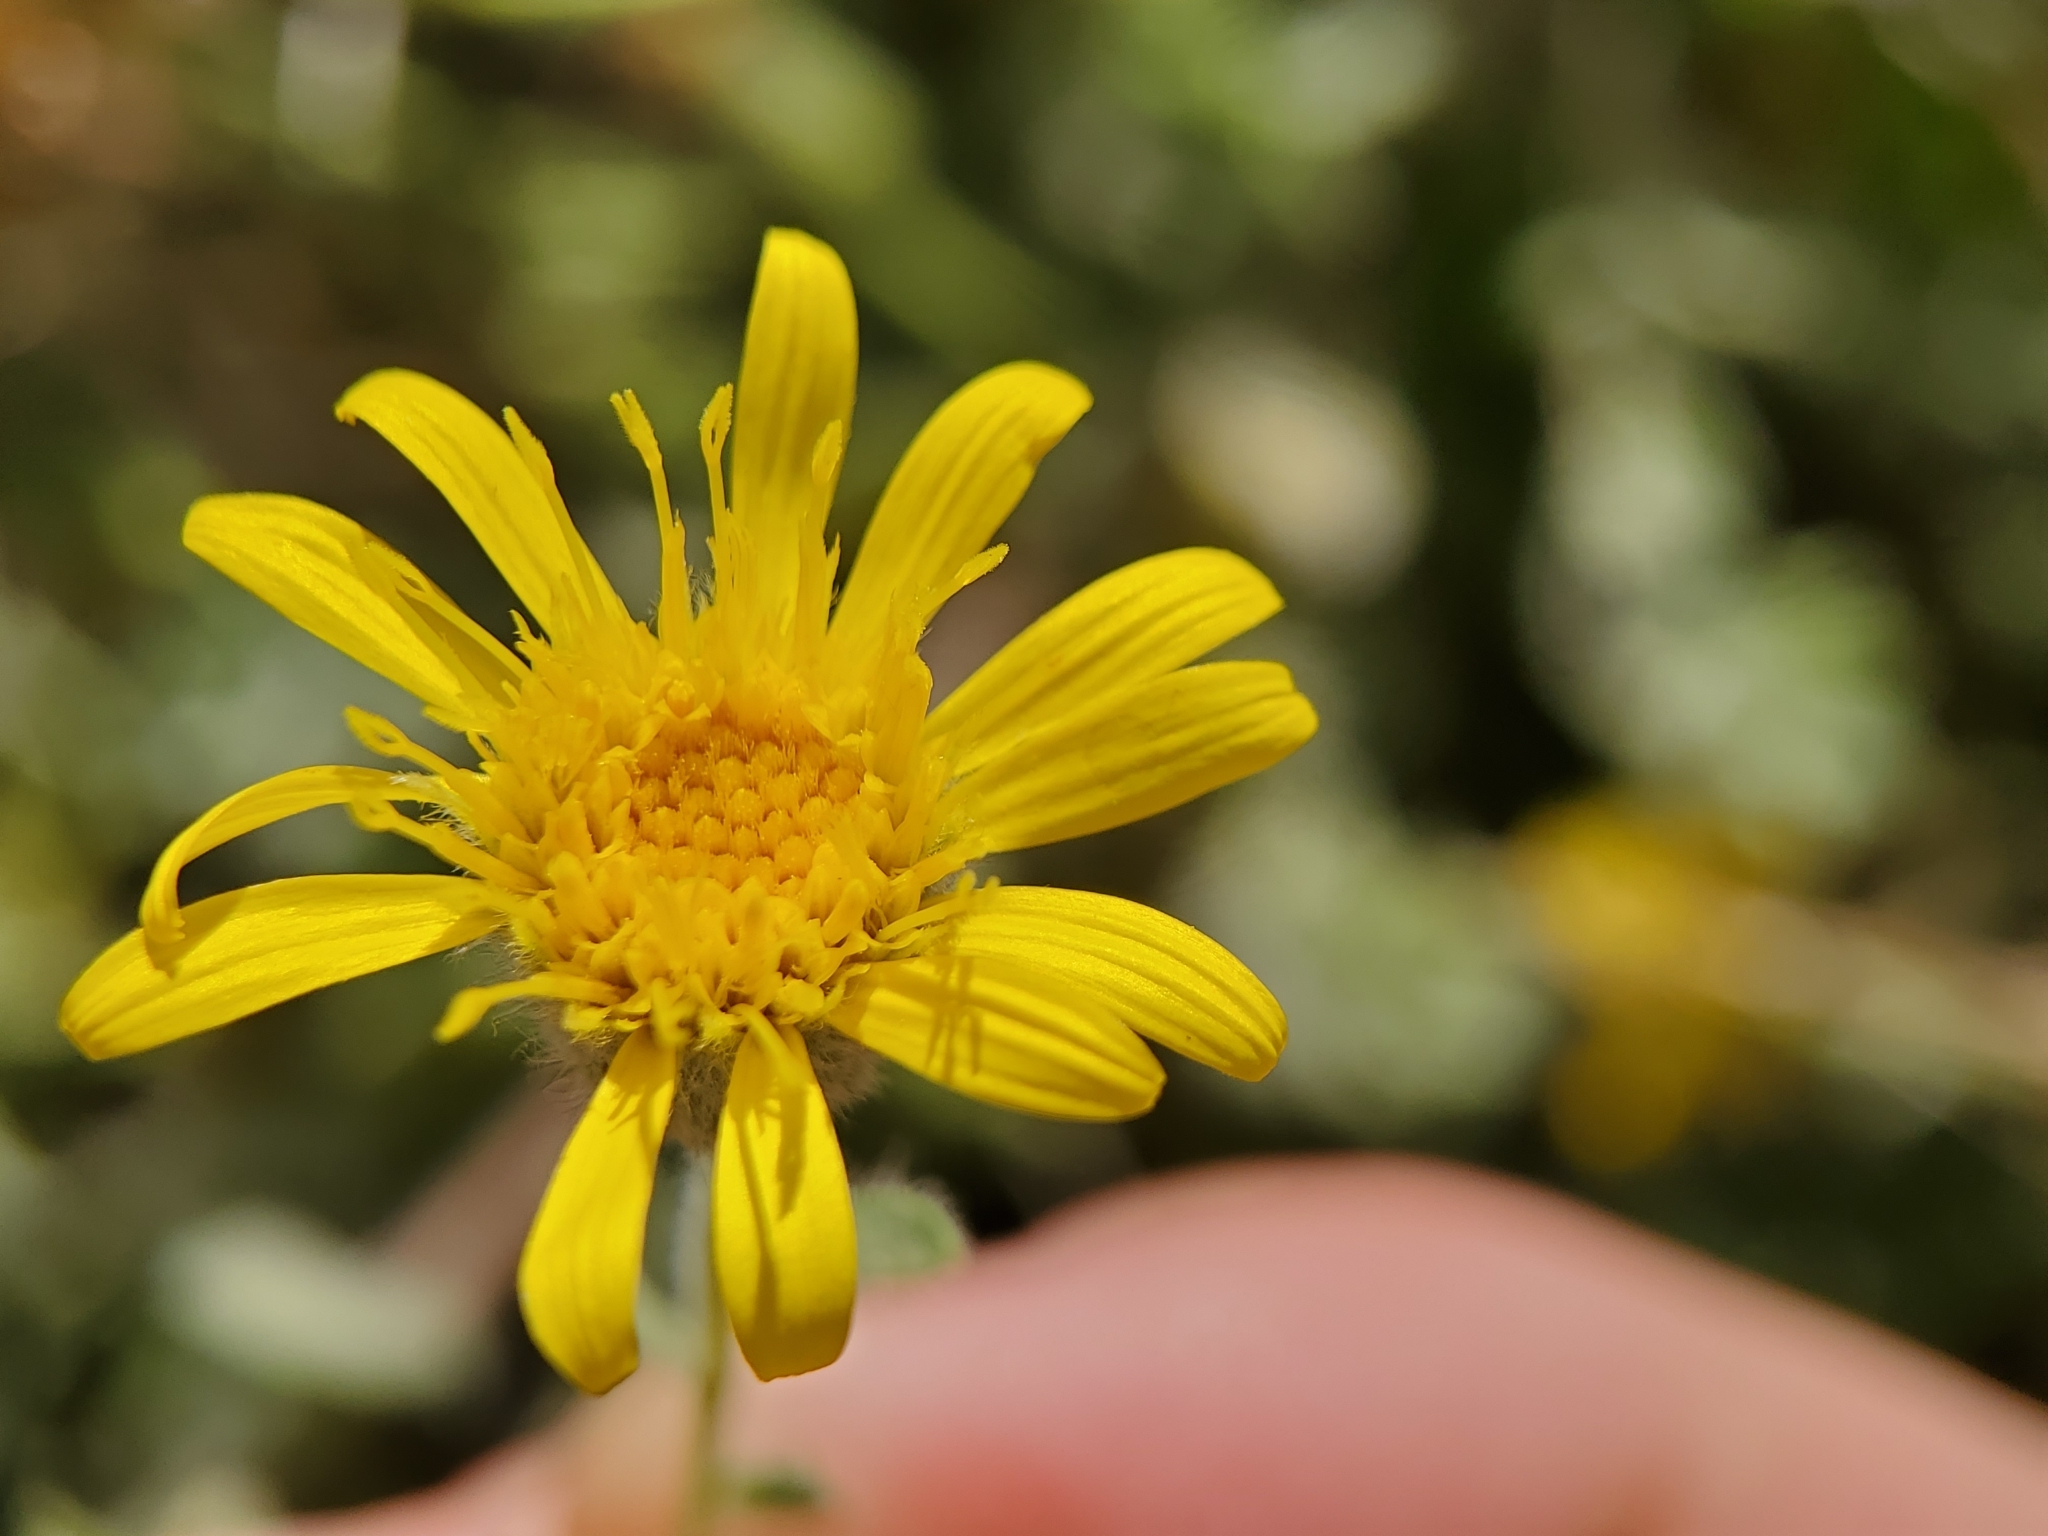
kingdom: Plantae
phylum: Tracheophyta
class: Magnoliopsida
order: Asterales
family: Asteraceae
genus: Heterotheca
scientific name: Heterotheca sessiliflora
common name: Sessile-flower golden-aster
